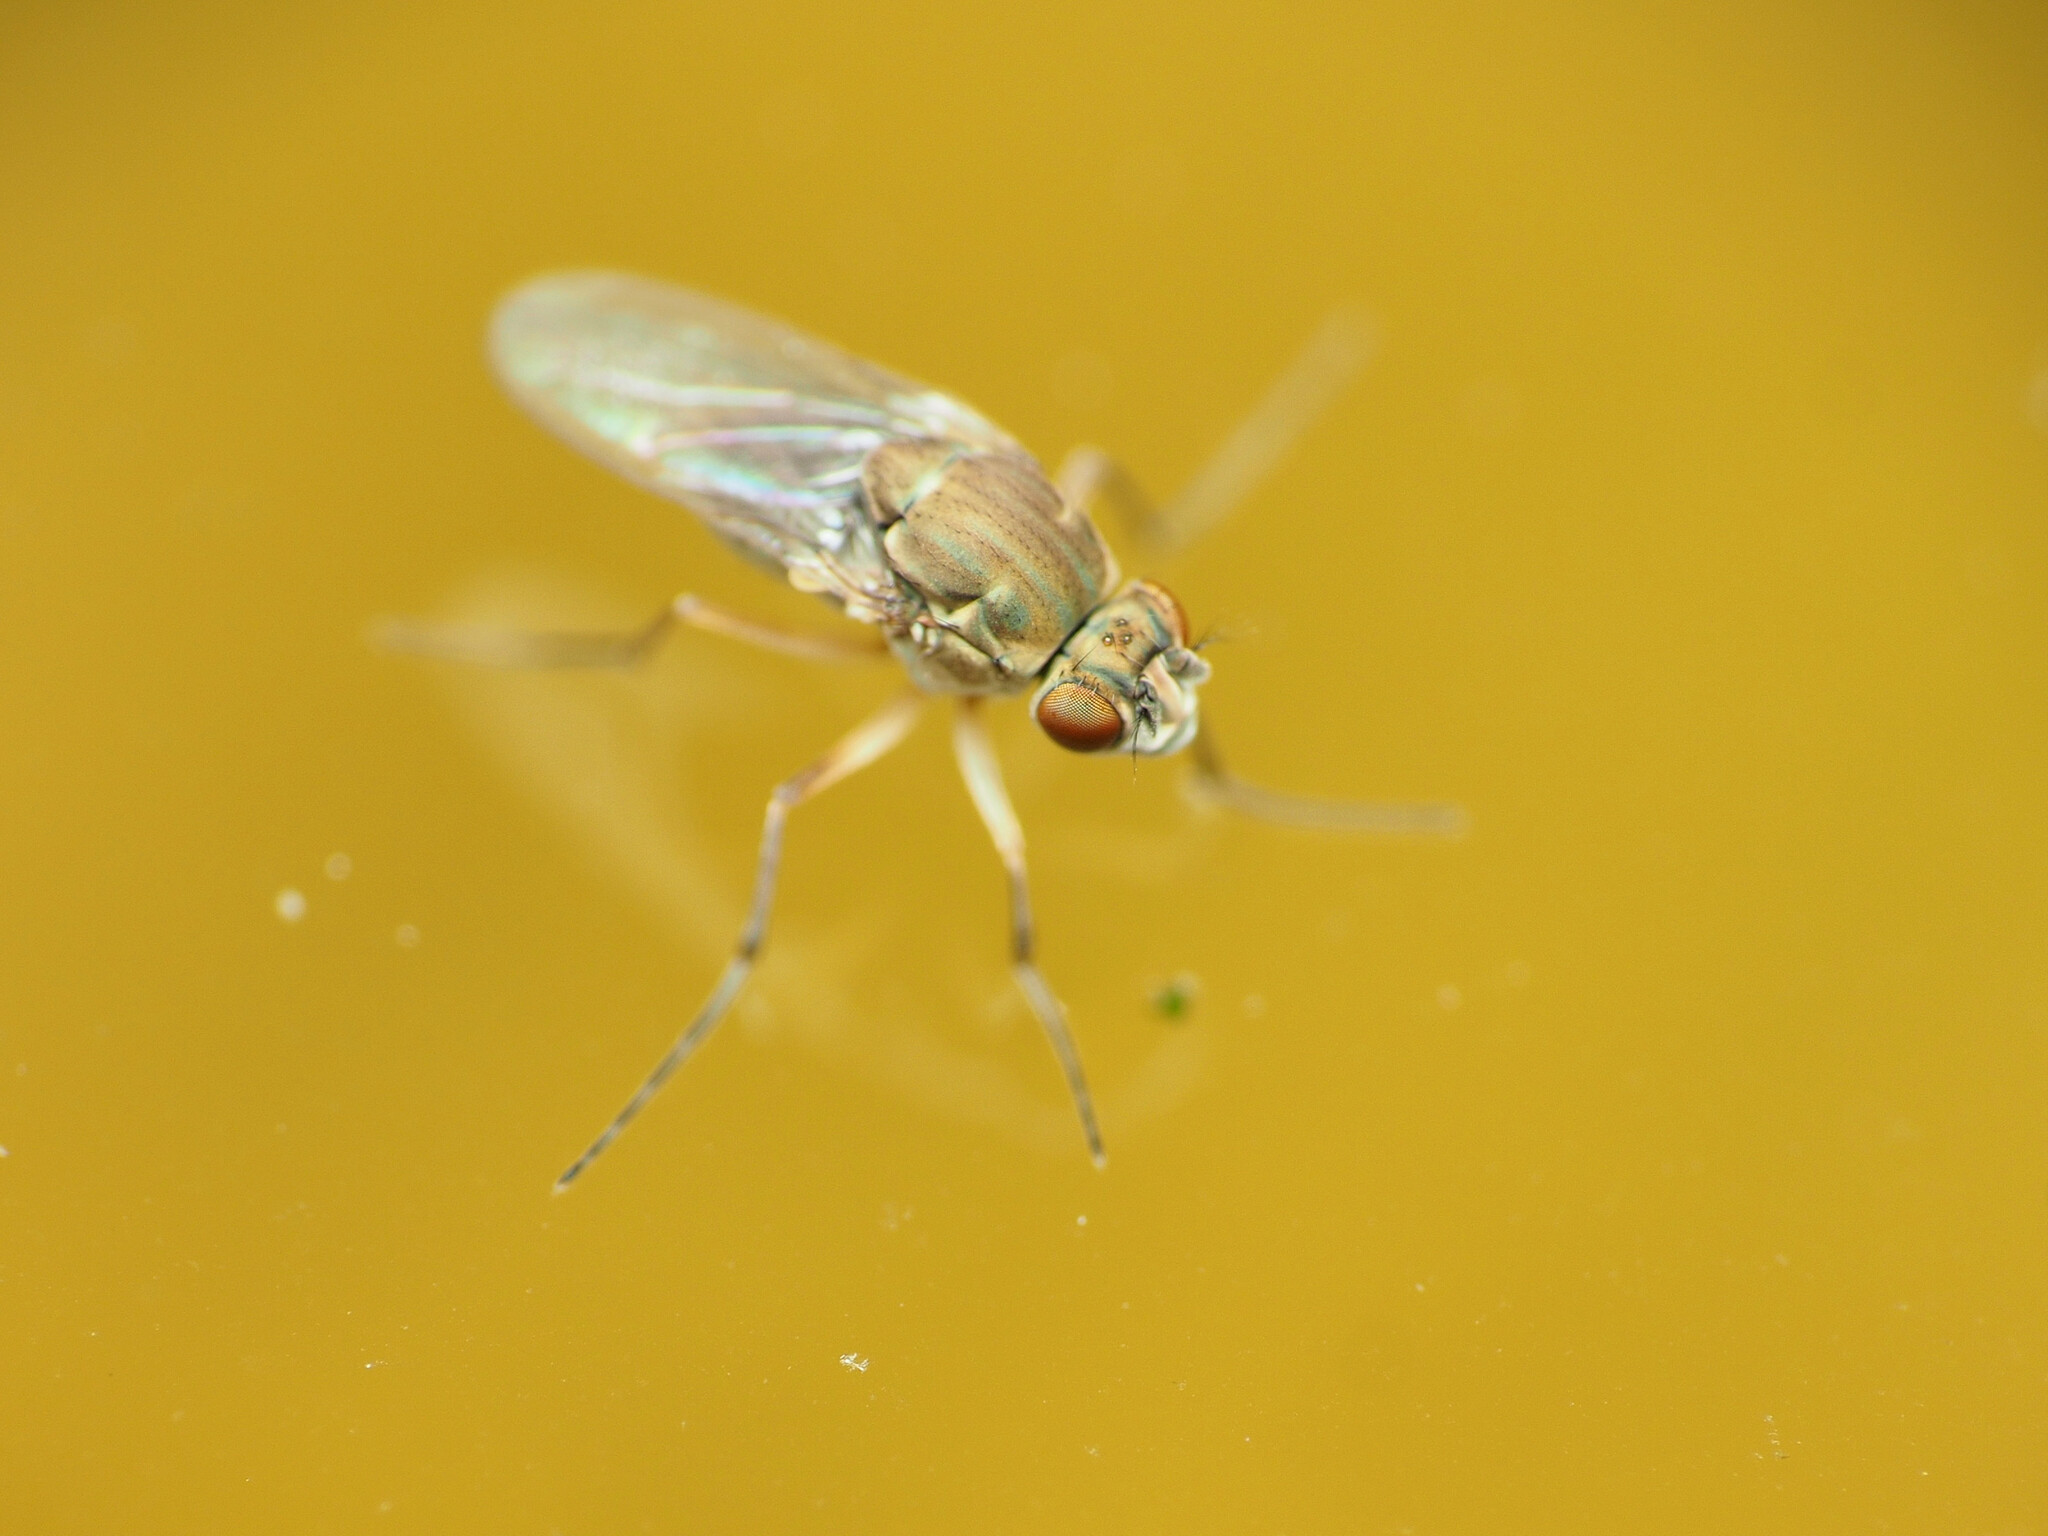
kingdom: Animalia
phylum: Arthropoda
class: Insecta
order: Diptera
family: Ephydridae
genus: Brachydeutera
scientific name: Brachydeutera longipes
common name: Shore fly
